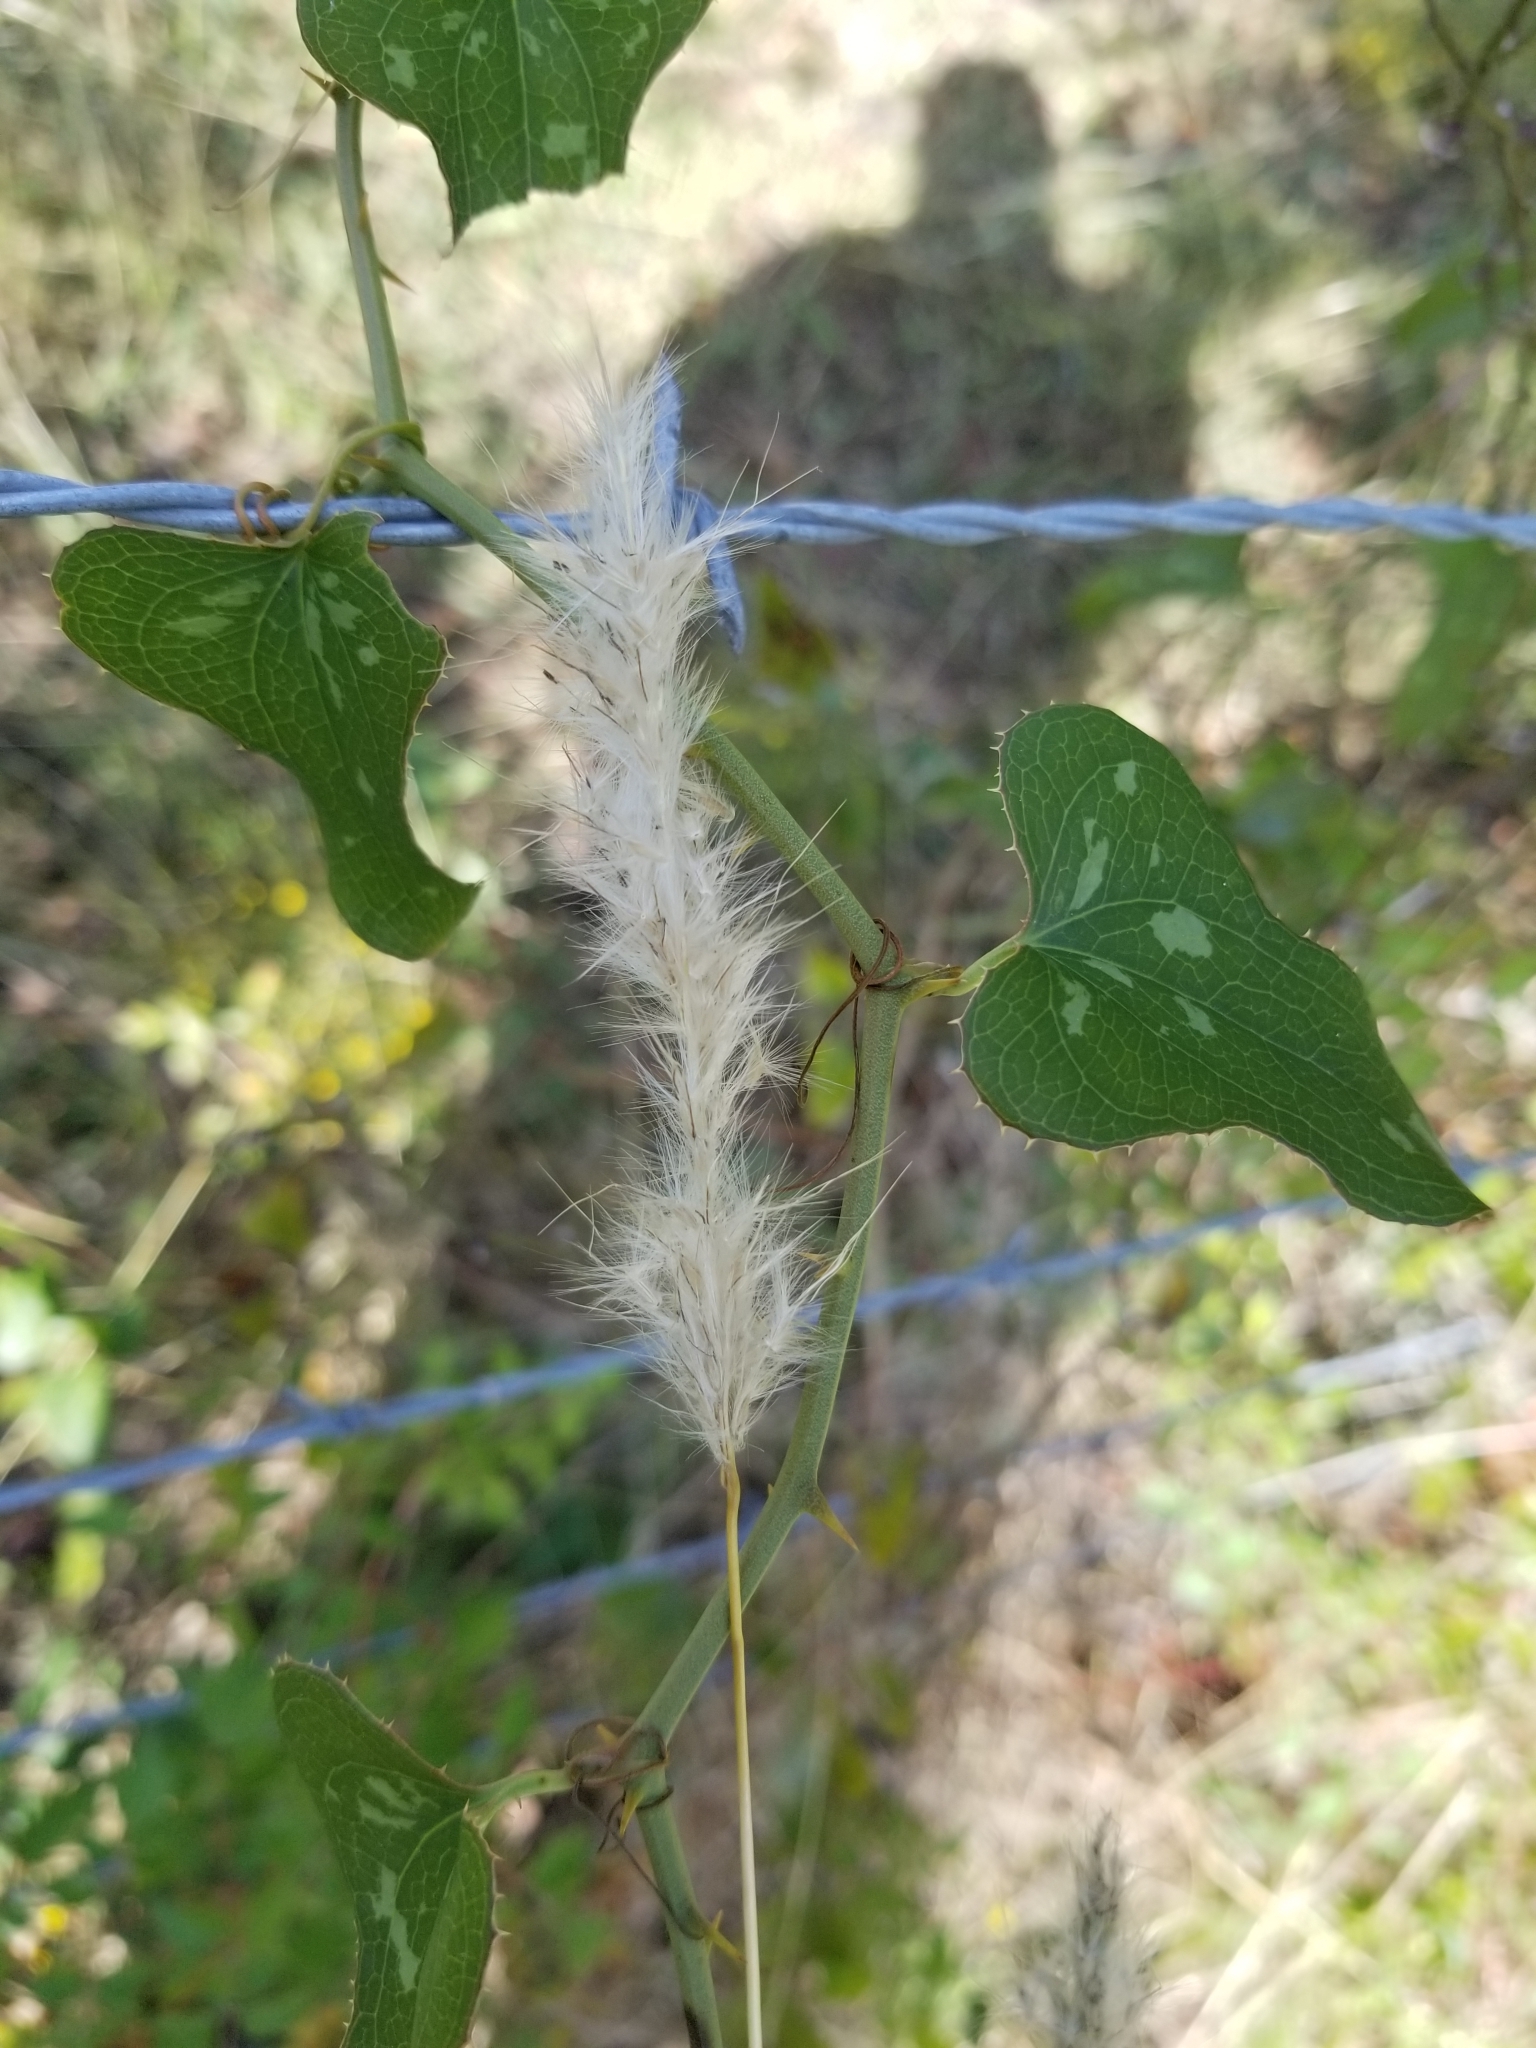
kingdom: Plantae
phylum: Tracheophyta
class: Liliopsida
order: Poales
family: Poaceae
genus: Bothriochloa
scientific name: Bothriochloa torreyana
